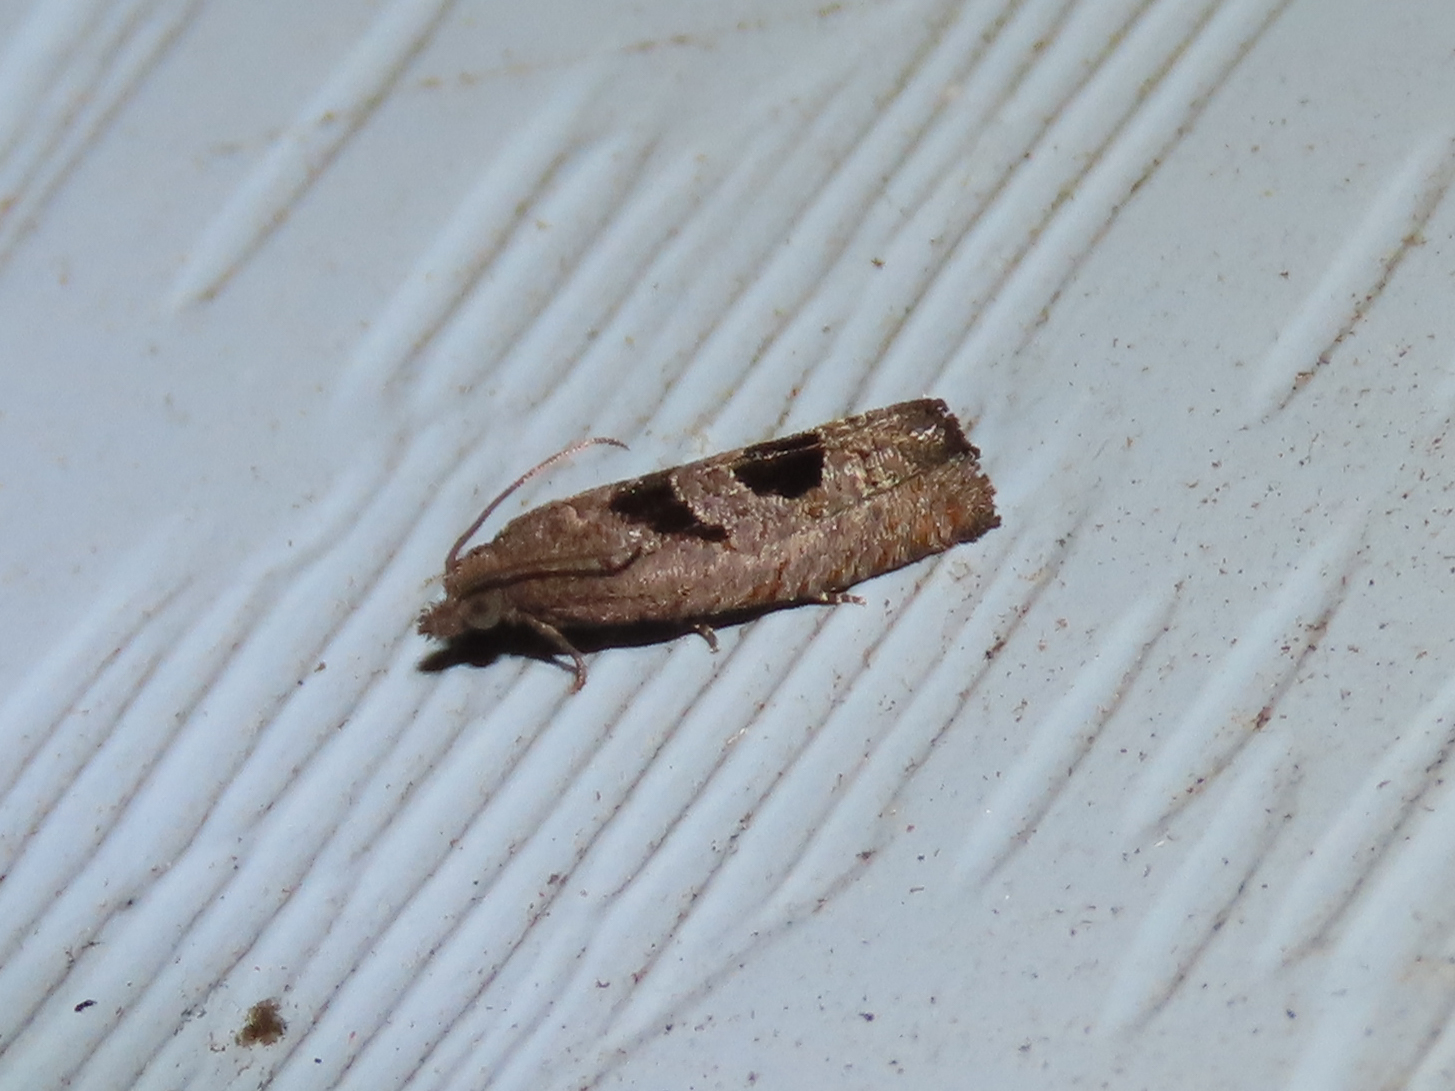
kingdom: Animalia
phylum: Arthropoda
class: Insecta
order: Lepidoptera
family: Tortricidae
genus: Eucosma
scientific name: Eucosma tomonana
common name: Aster-head eucosma moth
